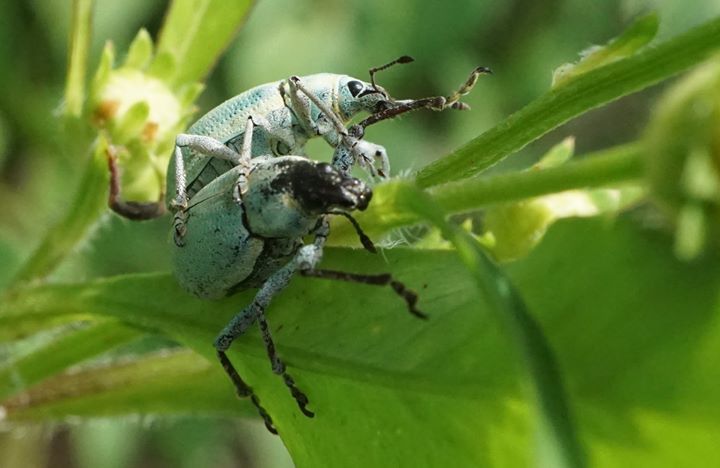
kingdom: Animalia
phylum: Arthropoda
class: Insecta
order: Coleoptera
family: Curculionidae
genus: Pachnaeus
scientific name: Pachnaeus litus
